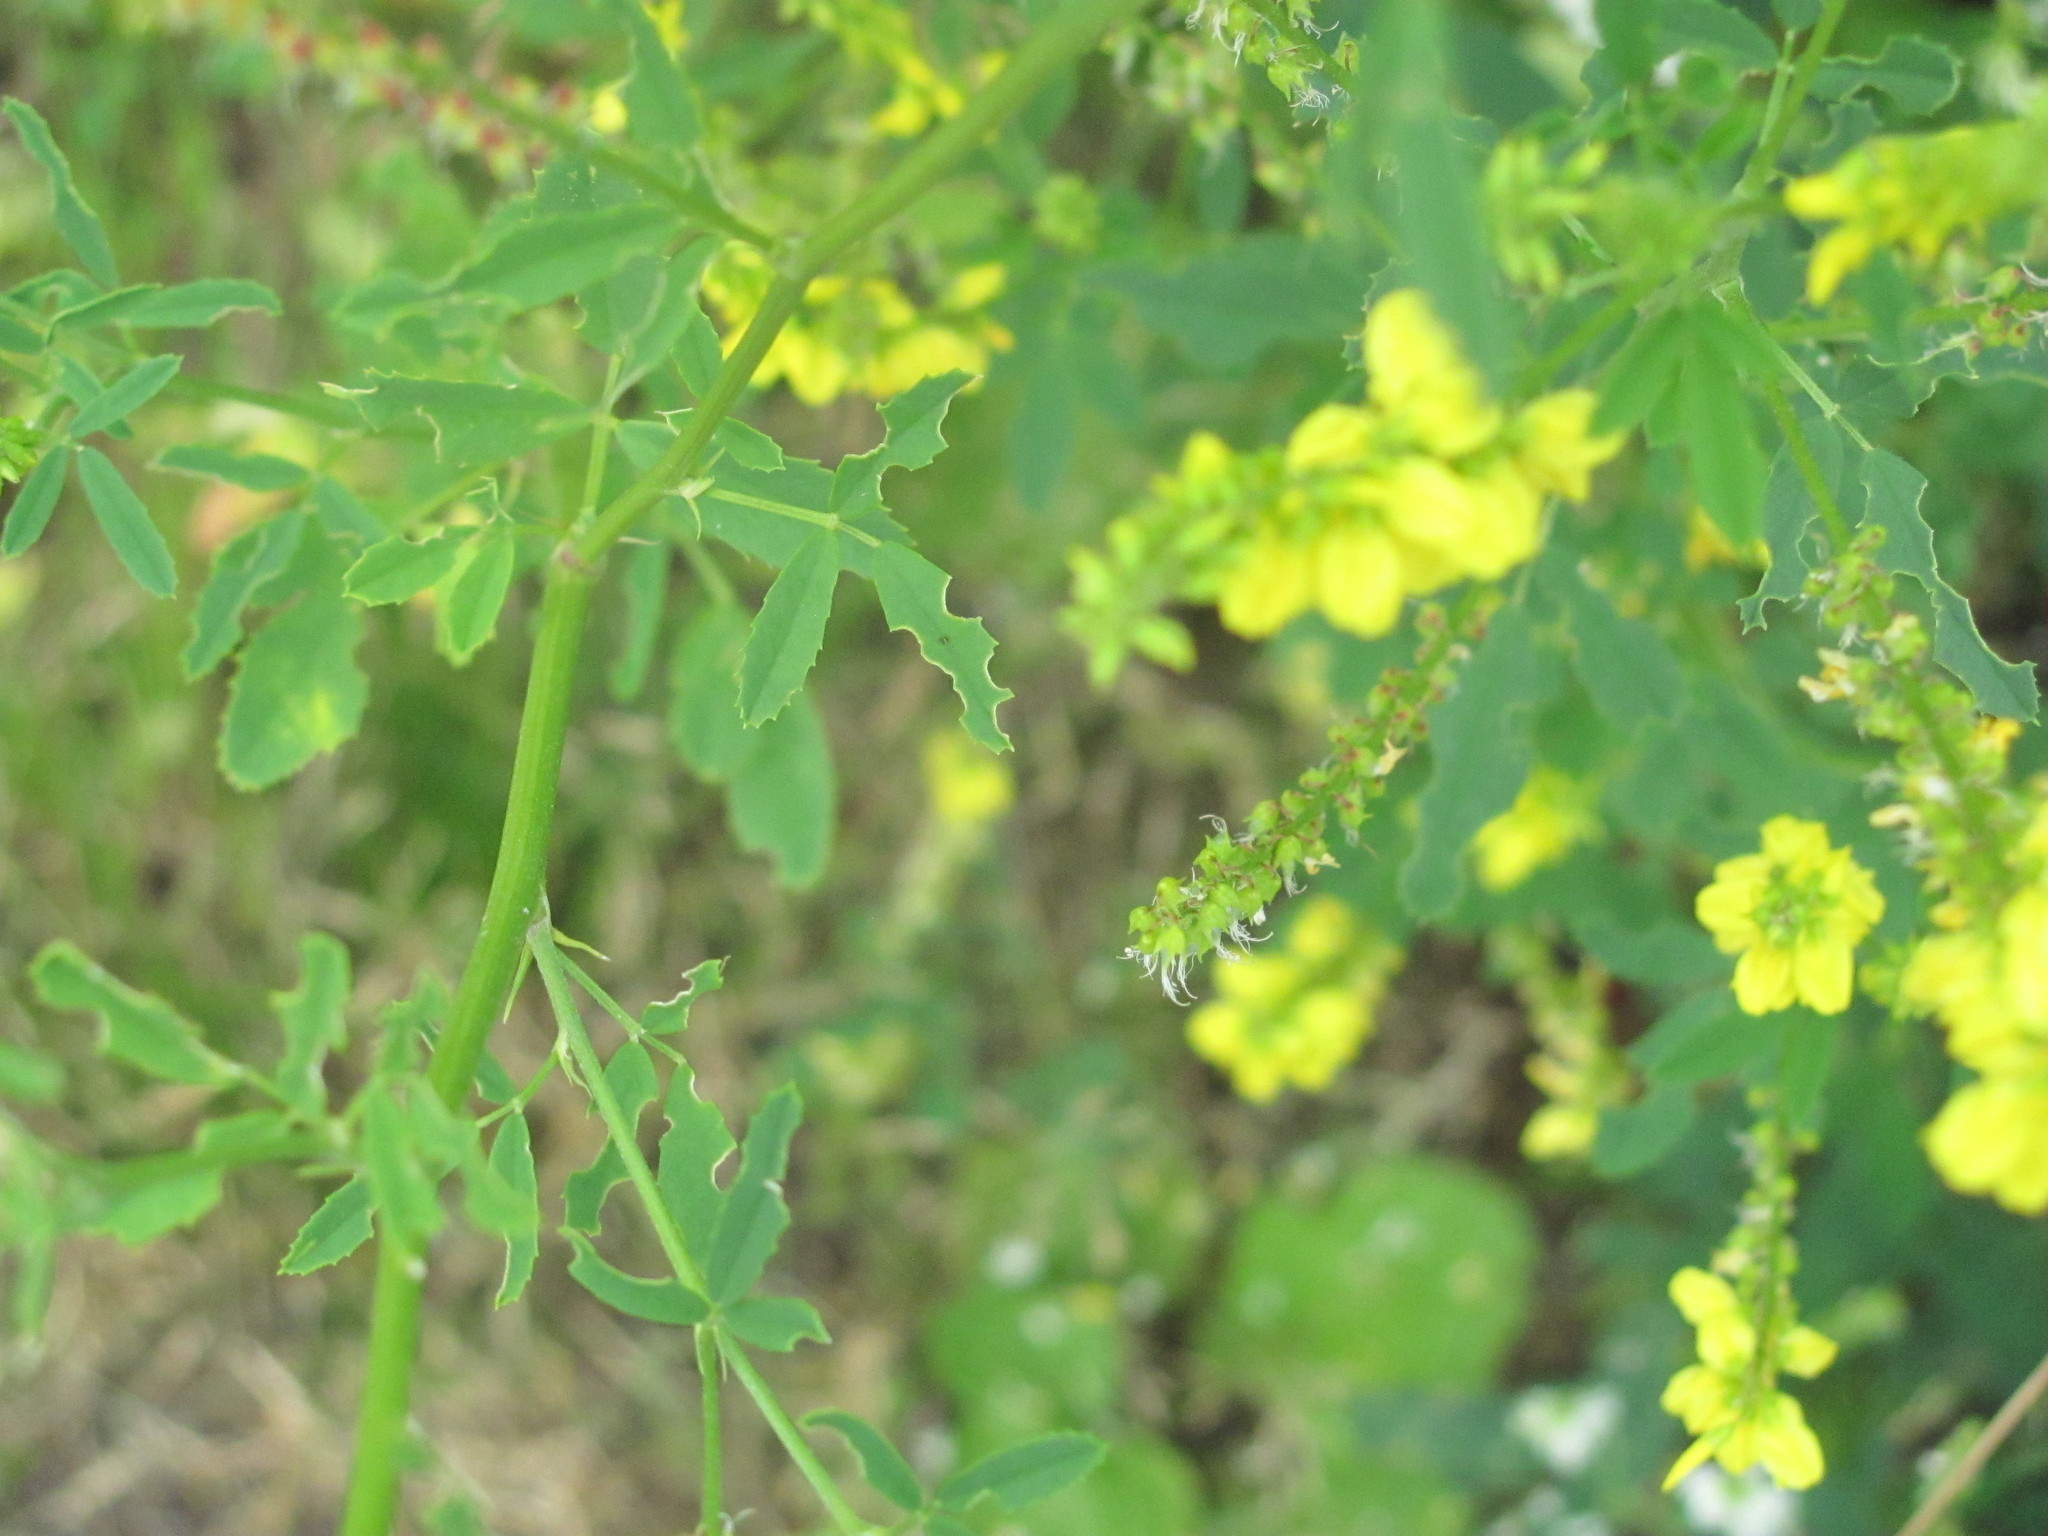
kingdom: Plantae
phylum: Tracheophyta
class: Magnoliopsida
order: Fabales
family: Fabaceae
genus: Melilotus
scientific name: Melilotus officinalis
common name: Sweetclover
